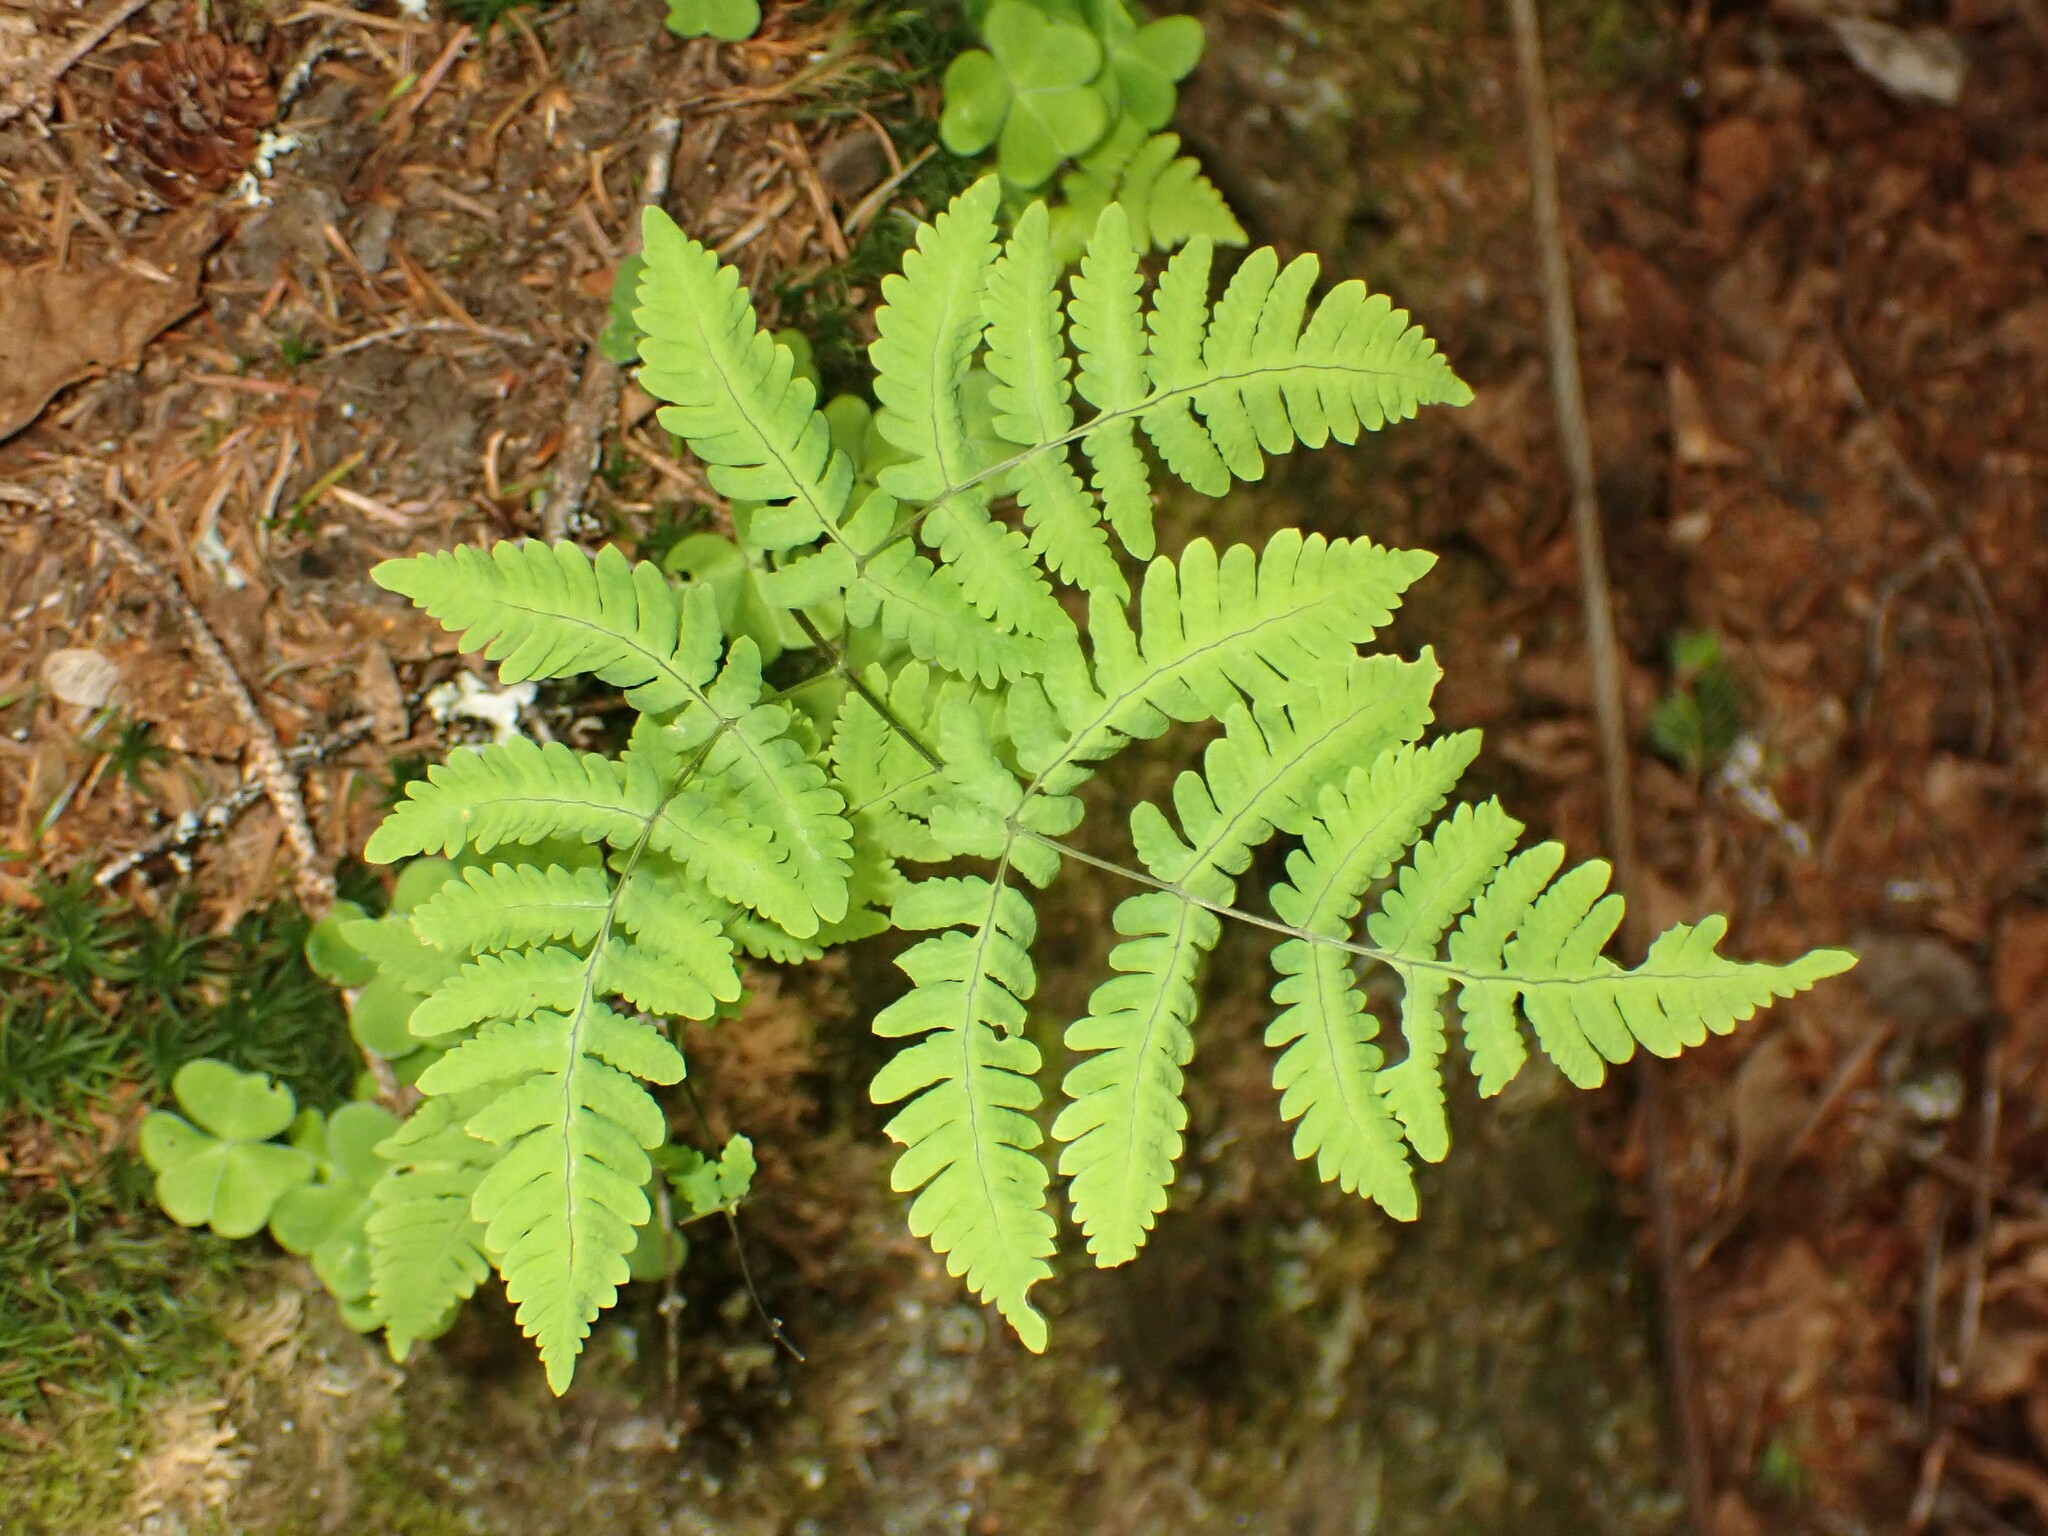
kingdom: Plantae
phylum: Tracheophyta
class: Polypodiopsida
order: Polypodiales
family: Cystopteridaceae
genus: Gymnocarpium
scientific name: Gymnocarpium dryopteris
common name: Oak fern
